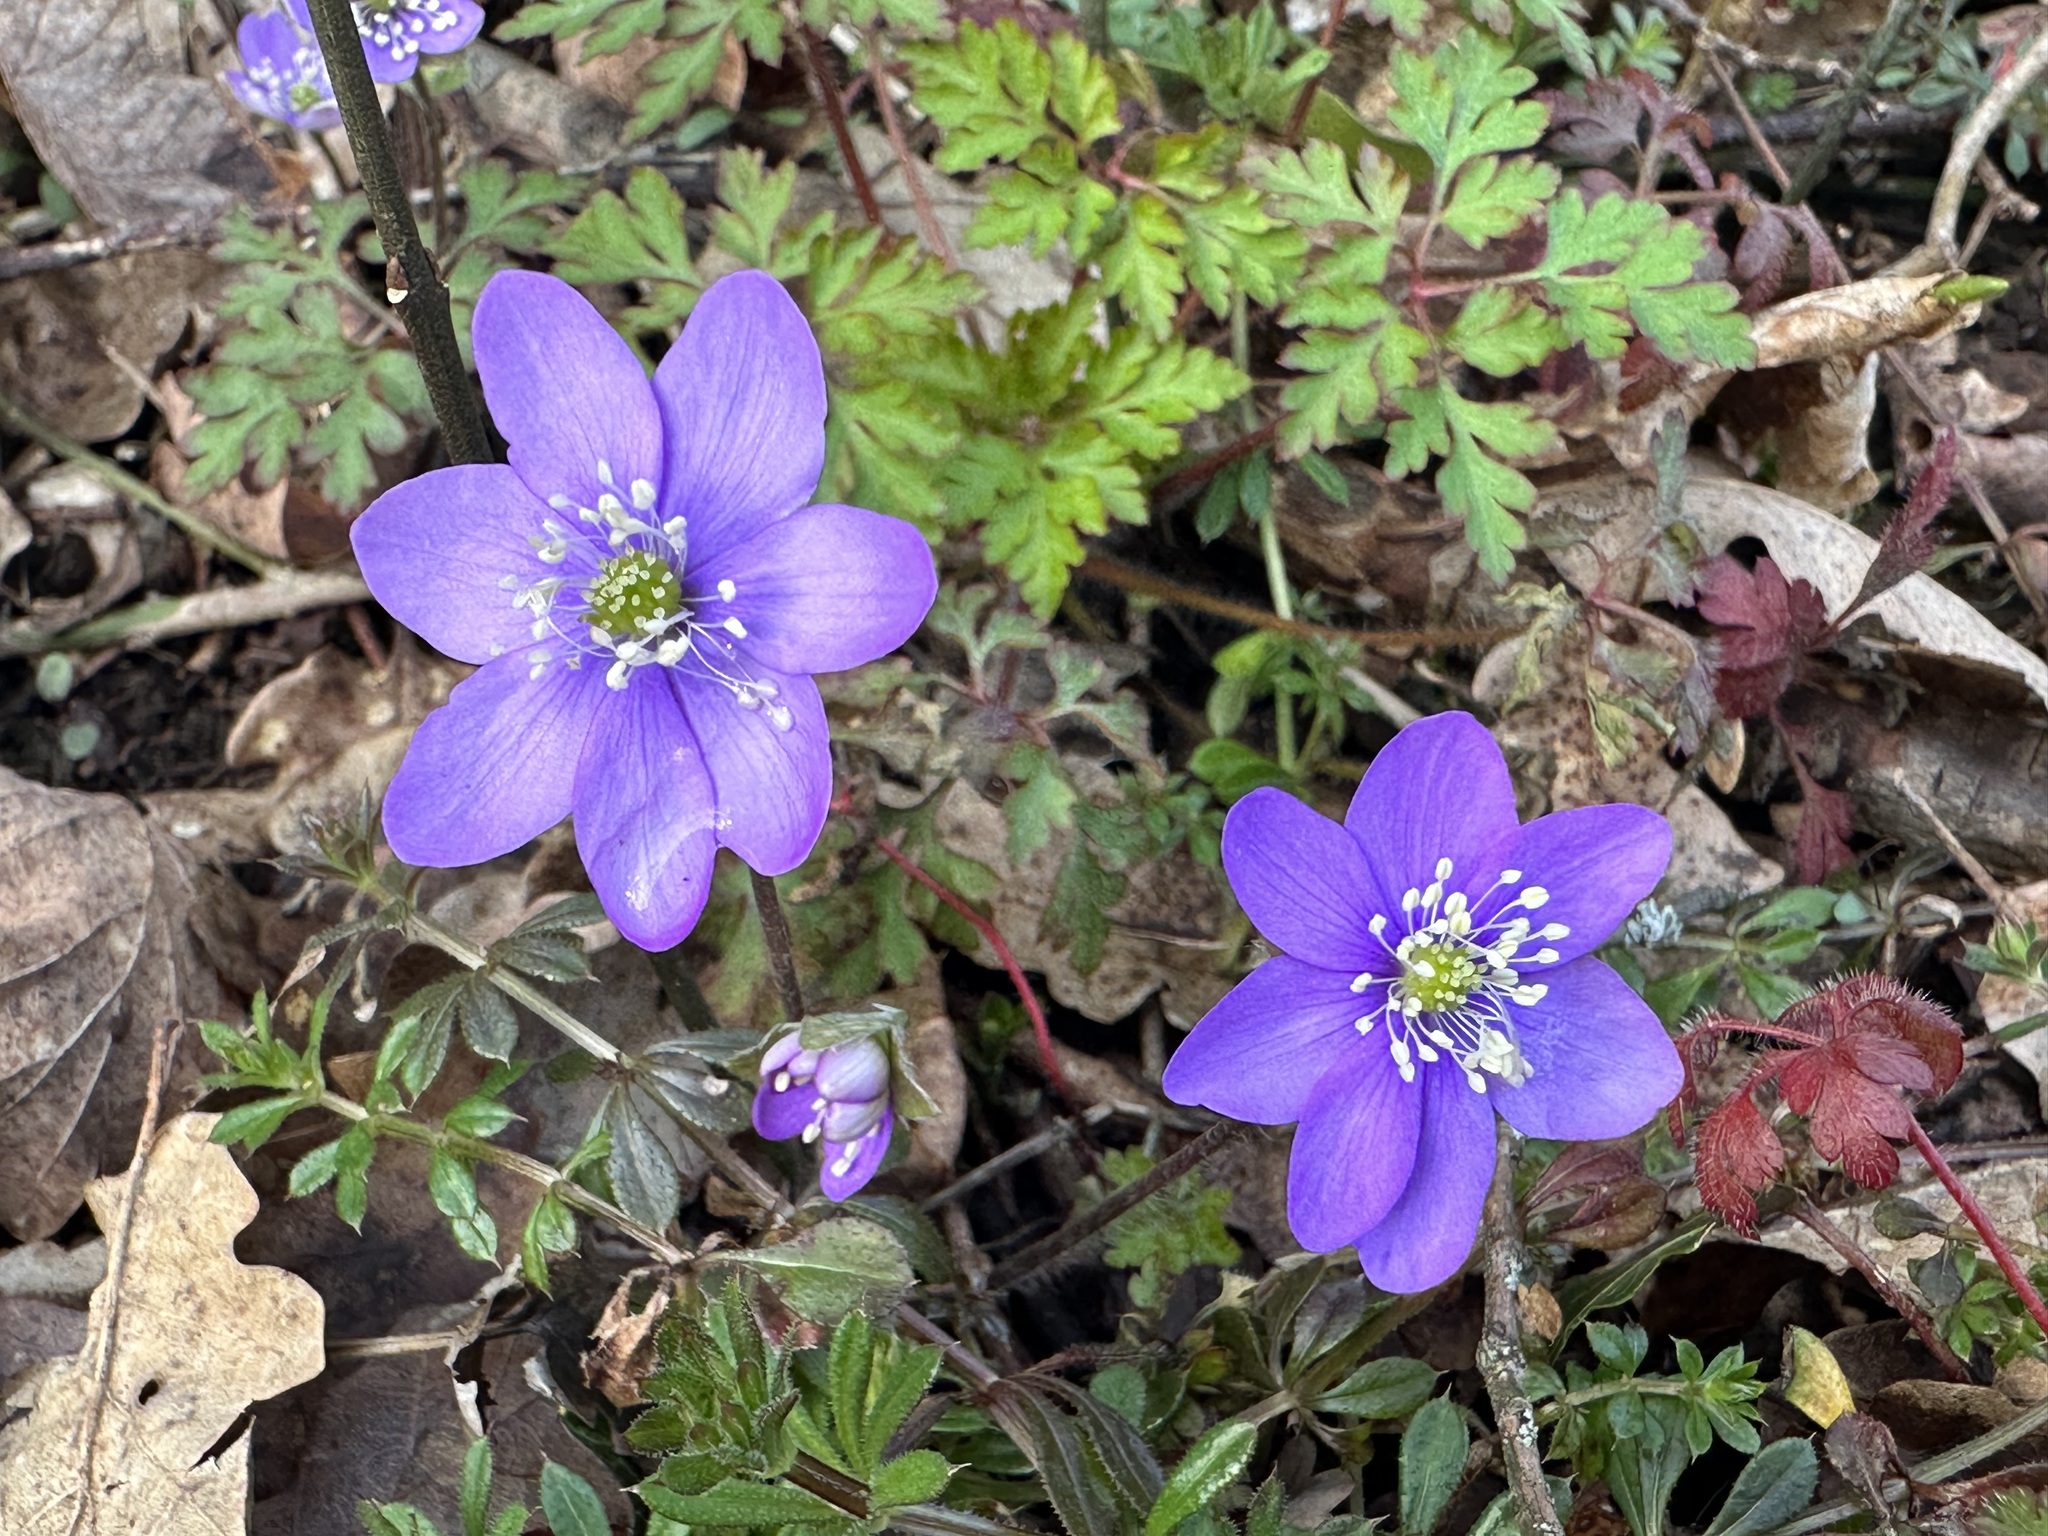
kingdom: Plantae
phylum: Tracheophyta
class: Magnoliopsida
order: Ranunculales
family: Ranunculaceae
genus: Hepatica
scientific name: Hepatica nobilis
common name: Liverleaf
